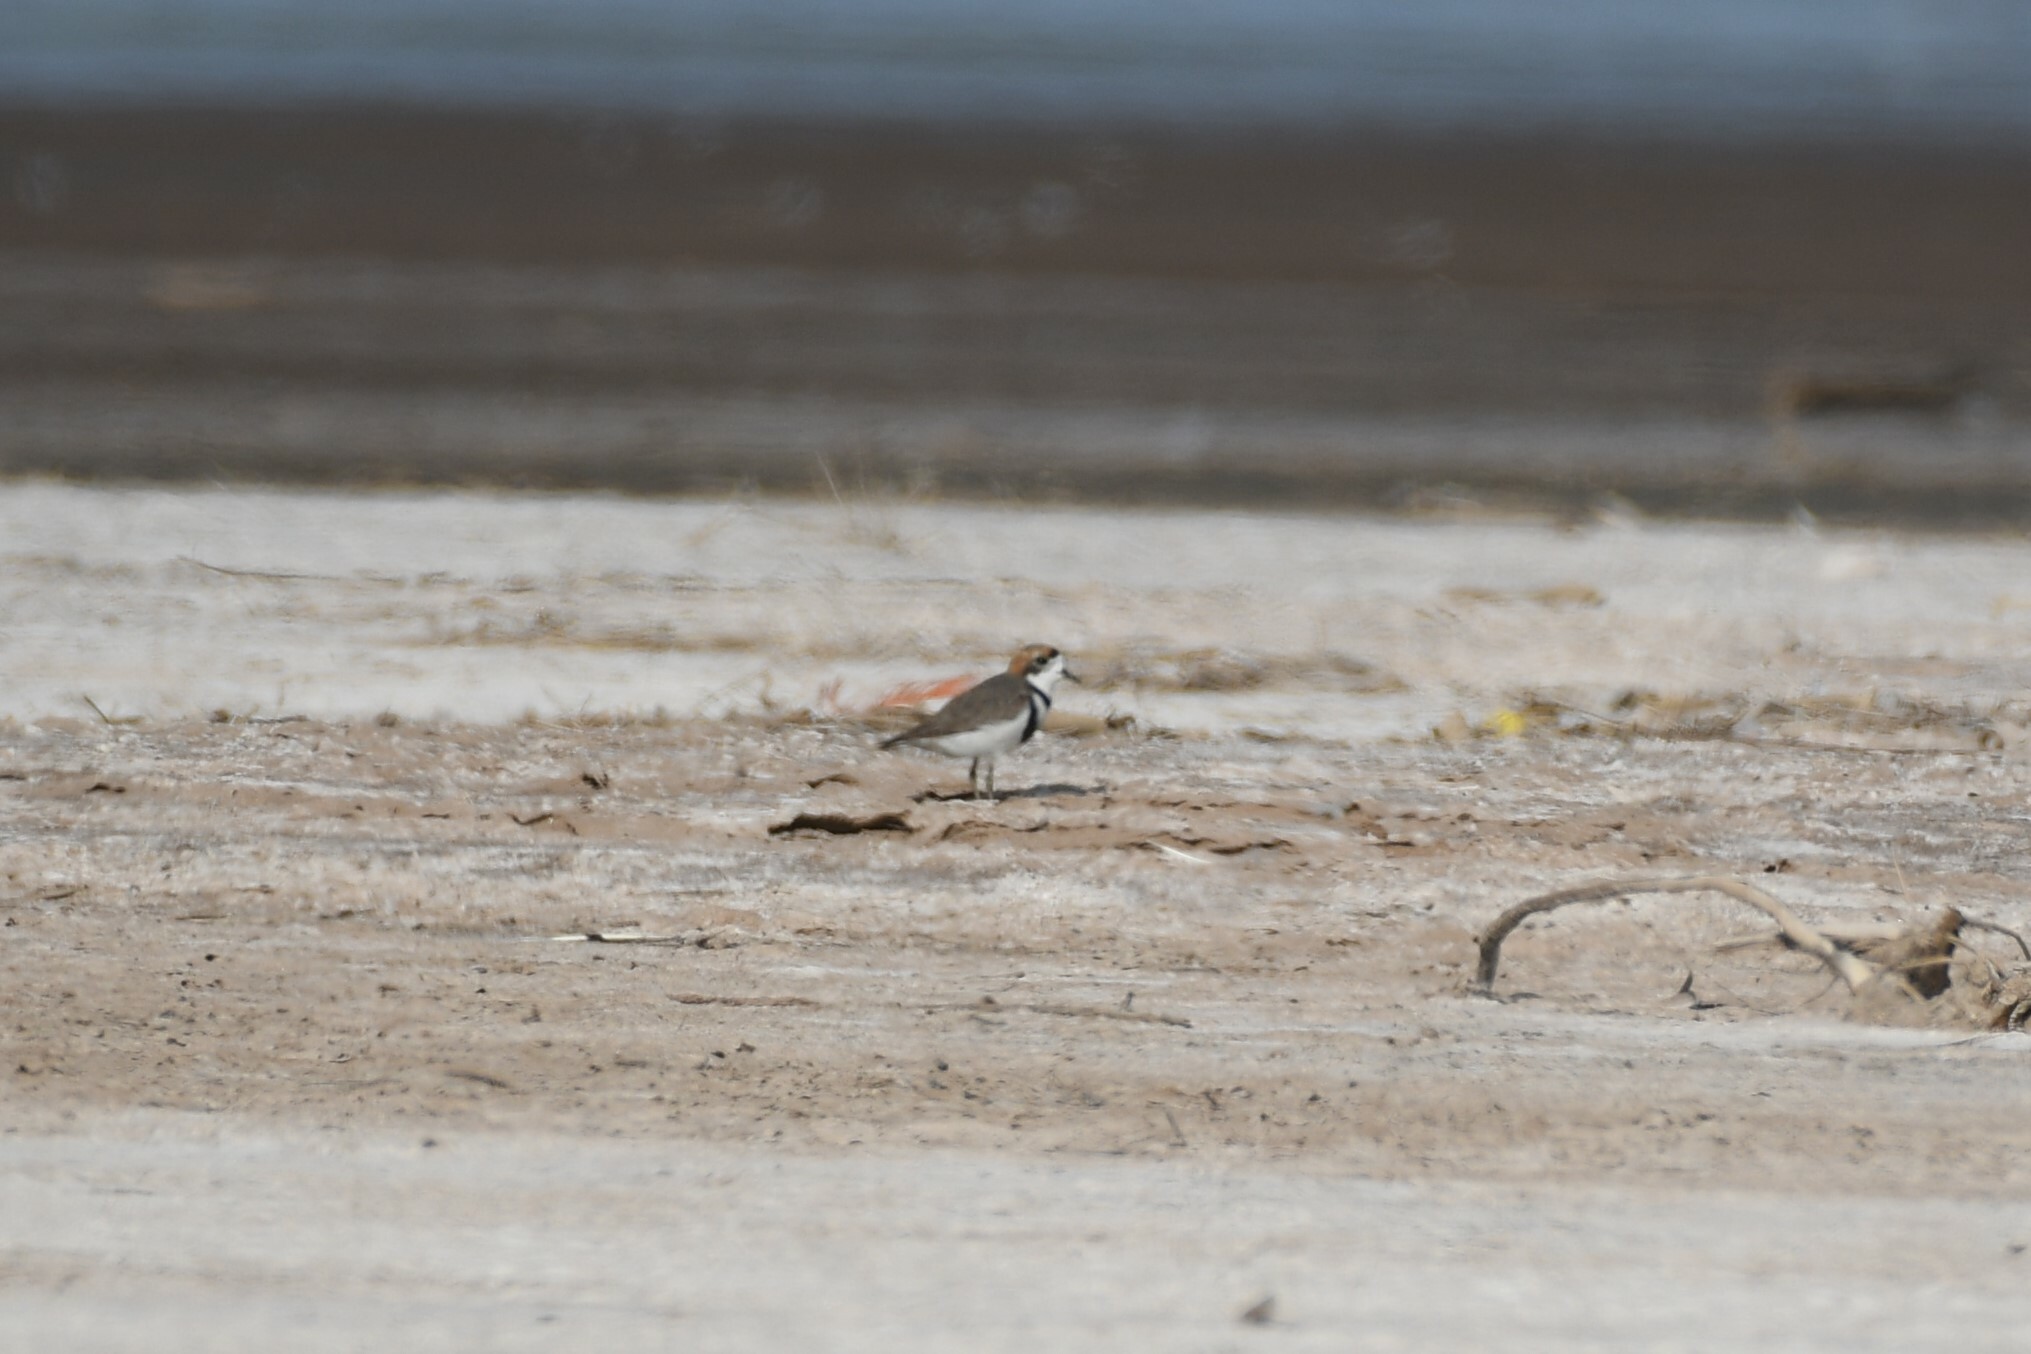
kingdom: Animalia
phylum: Chordata
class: Aves
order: Charadriiformes
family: Charadriidae
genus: Anarhynchus
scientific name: Anarhynchus
